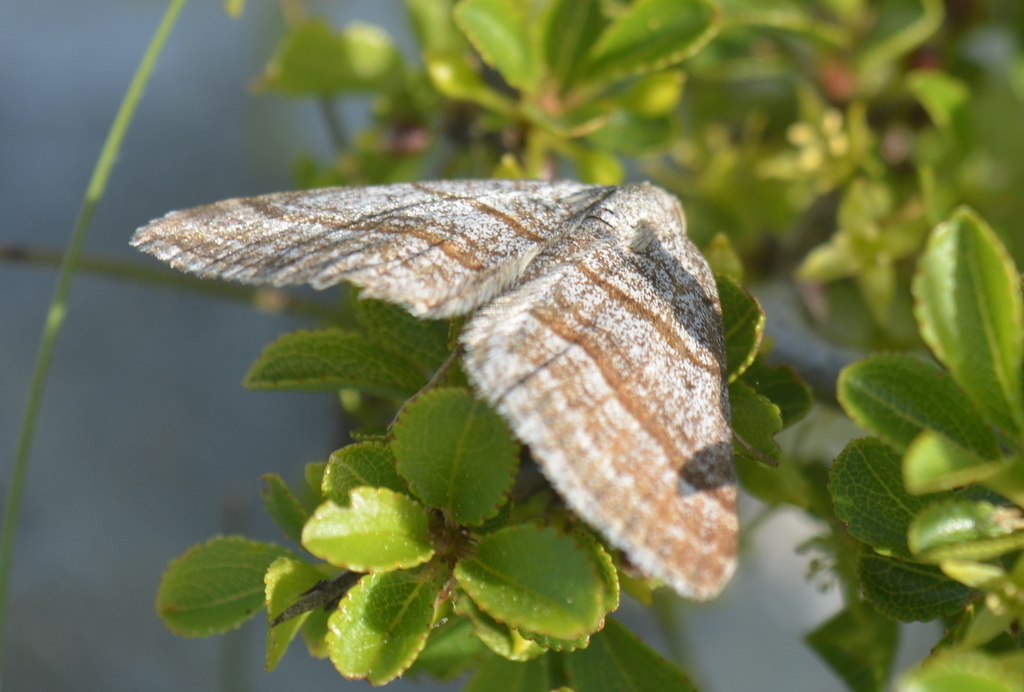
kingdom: Animalia
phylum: Arthropoda
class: Insecta
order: Lepidoptera
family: Geometridae
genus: Scotopteryx
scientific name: Scotopteryx coarctaria
